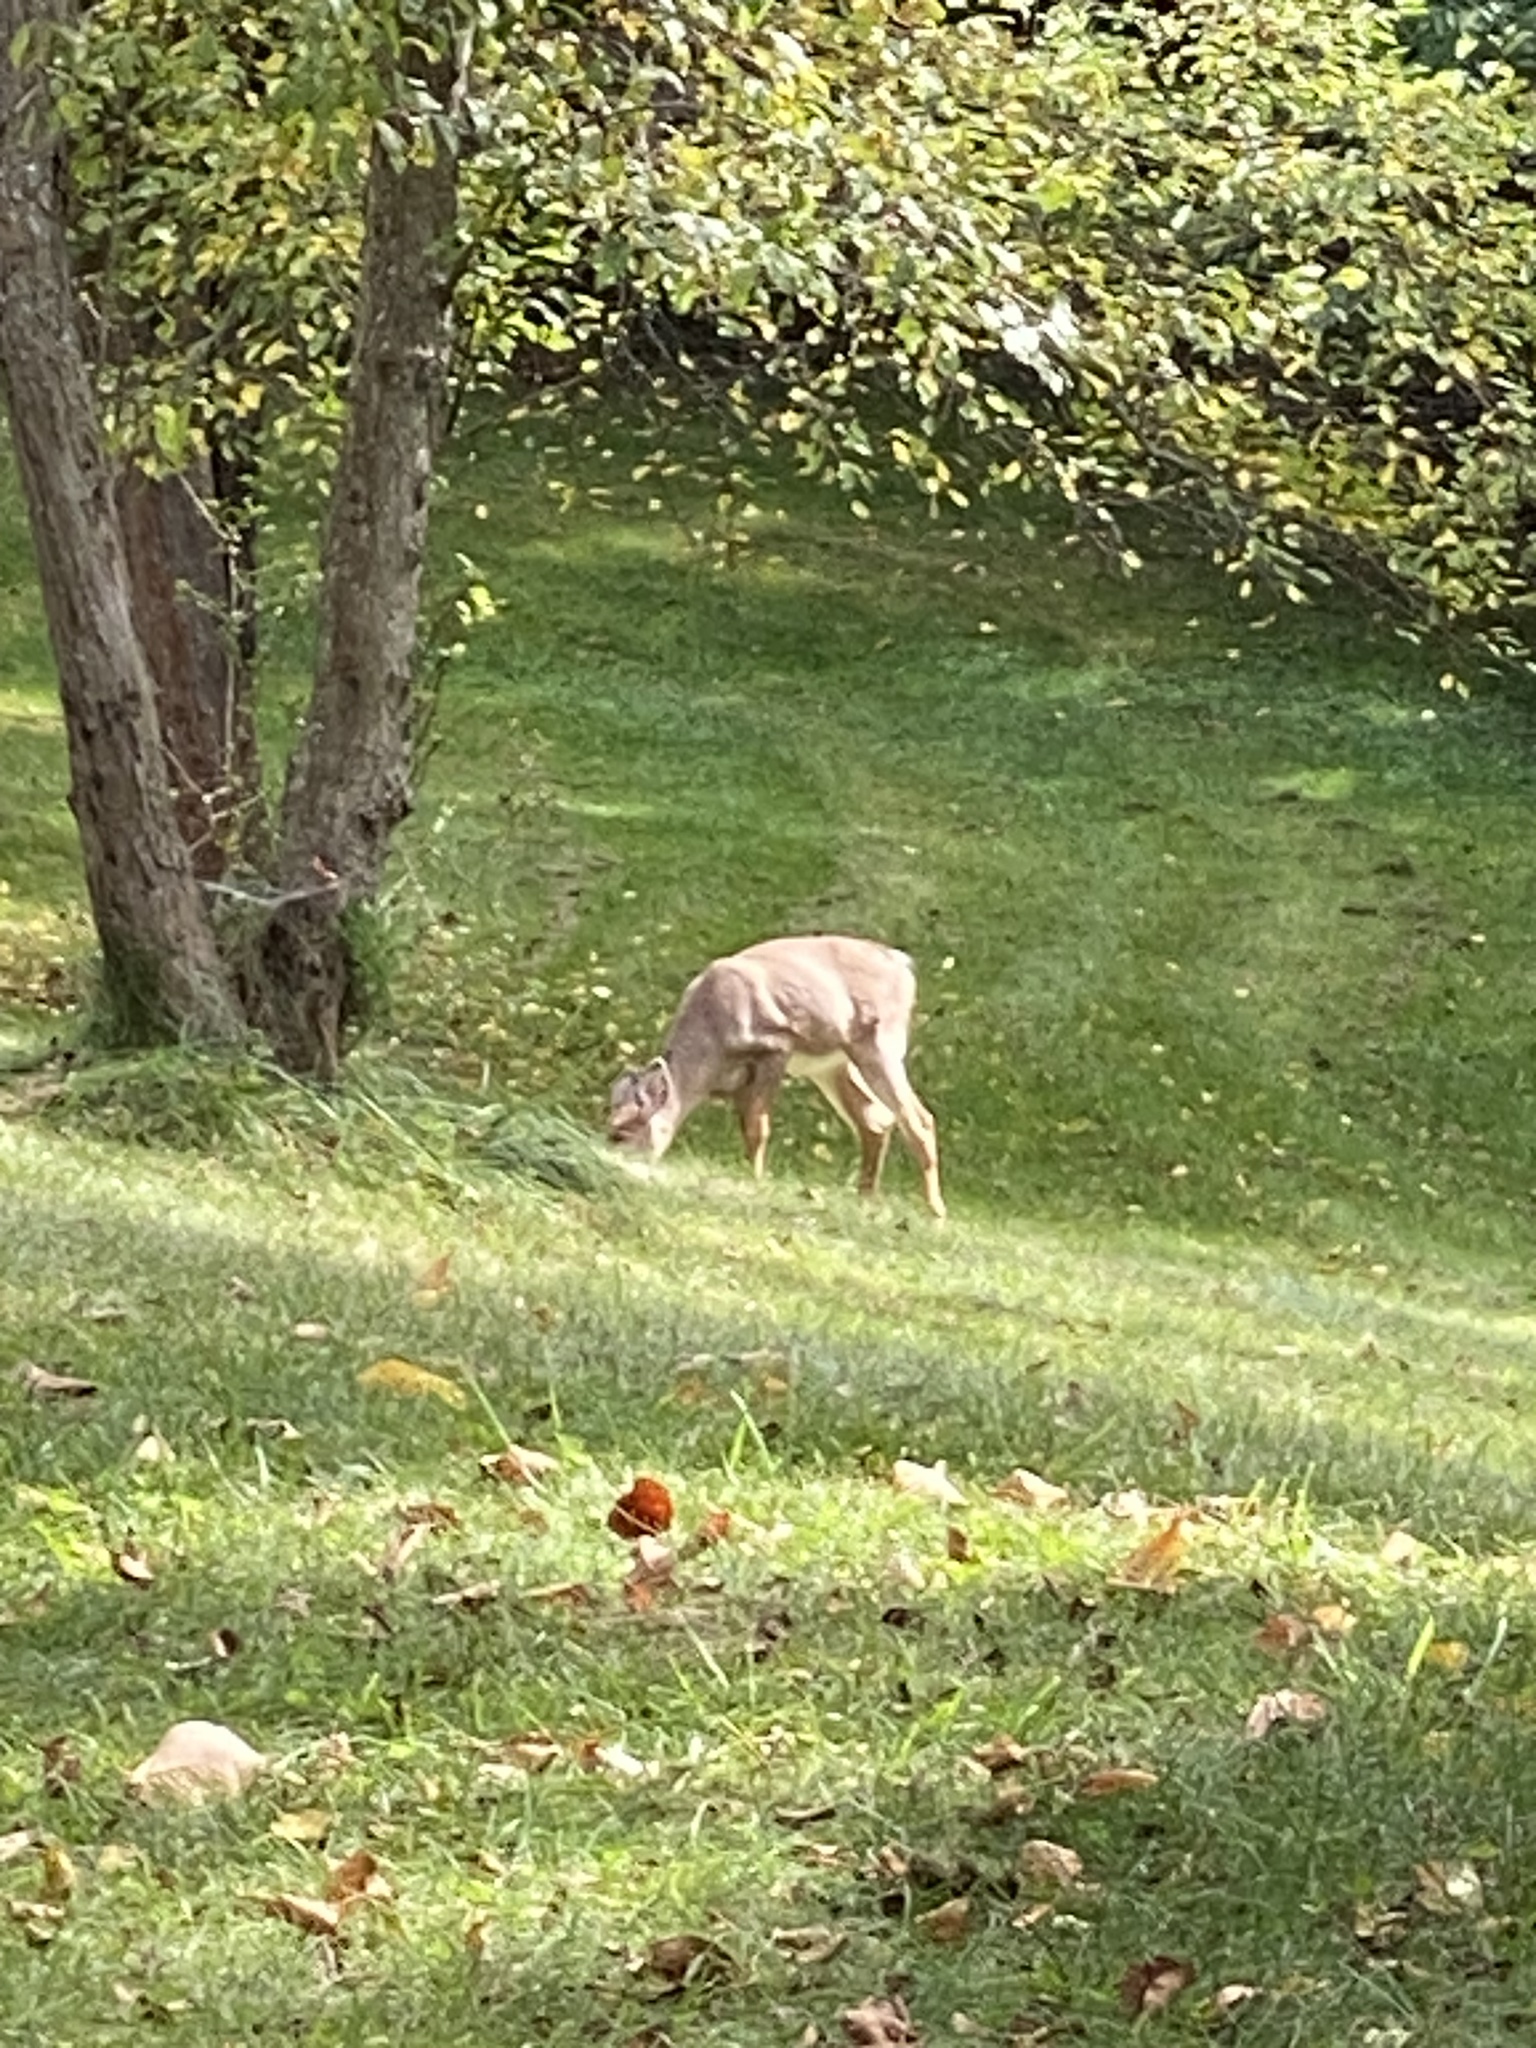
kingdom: Animalia
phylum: Chordata
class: Mammalia
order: Artiodactyla
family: Cervidae
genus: Odocoileus
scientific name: Odocoileus virginianus
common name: White-tailed deer
